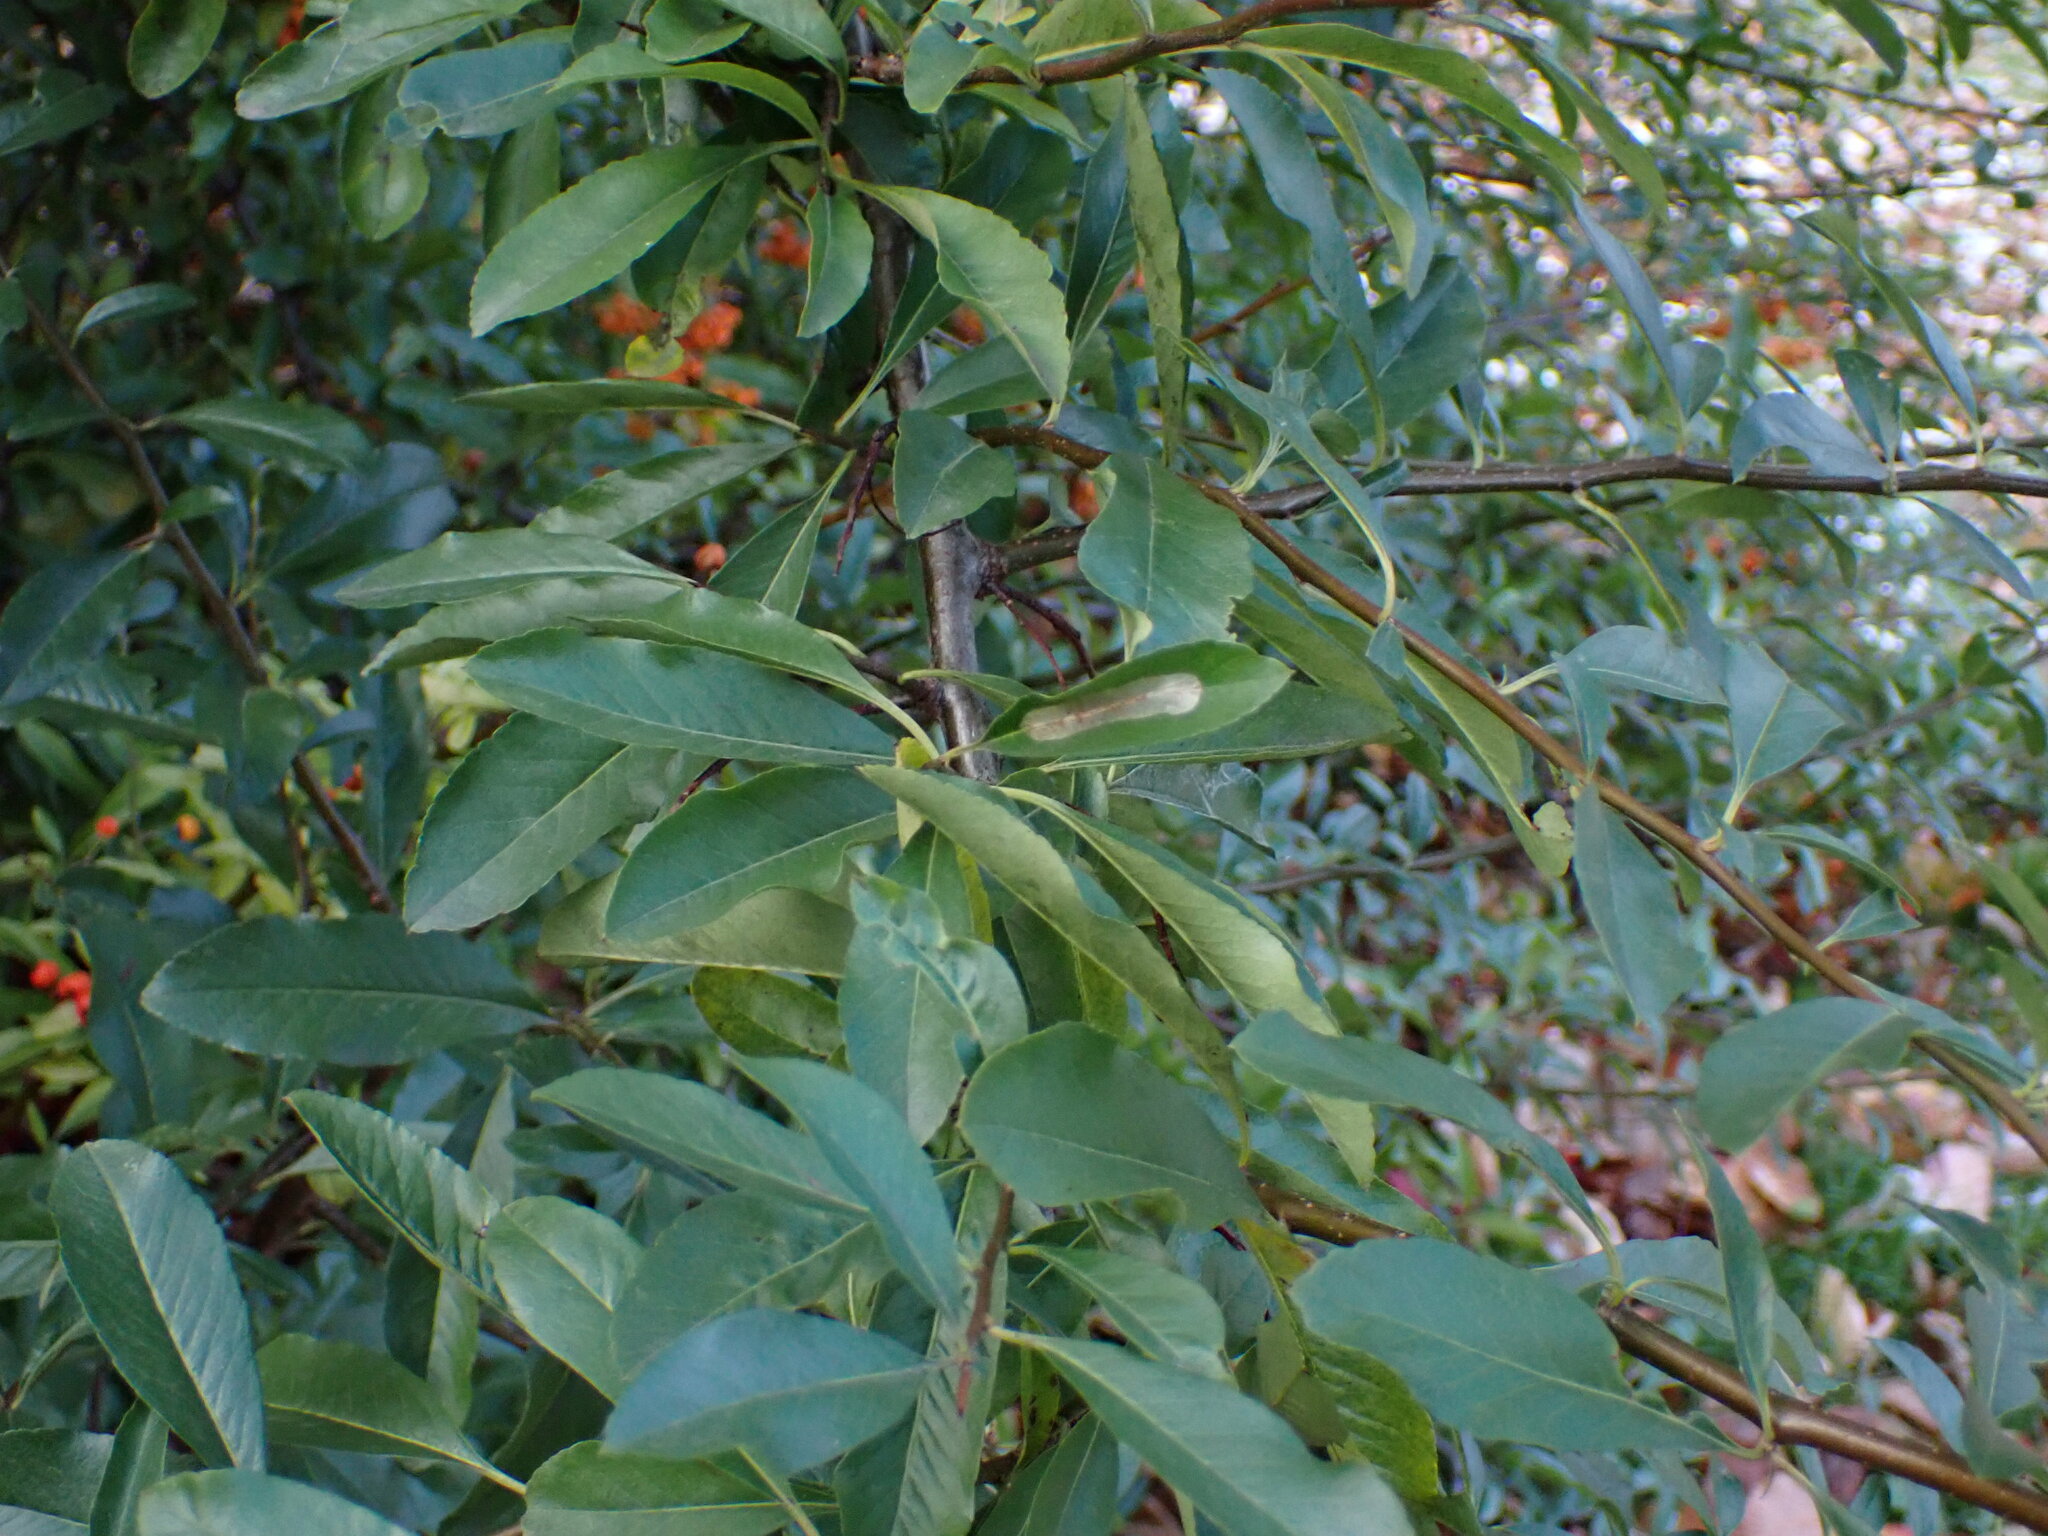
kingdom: Animalia
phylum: Arthropoda
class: Insecta
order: Lepidoptera
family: Gracillariidae
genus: Phyllonorycter
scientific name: Phyllonorycter leucographella
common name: Firethorn leaf-miner
